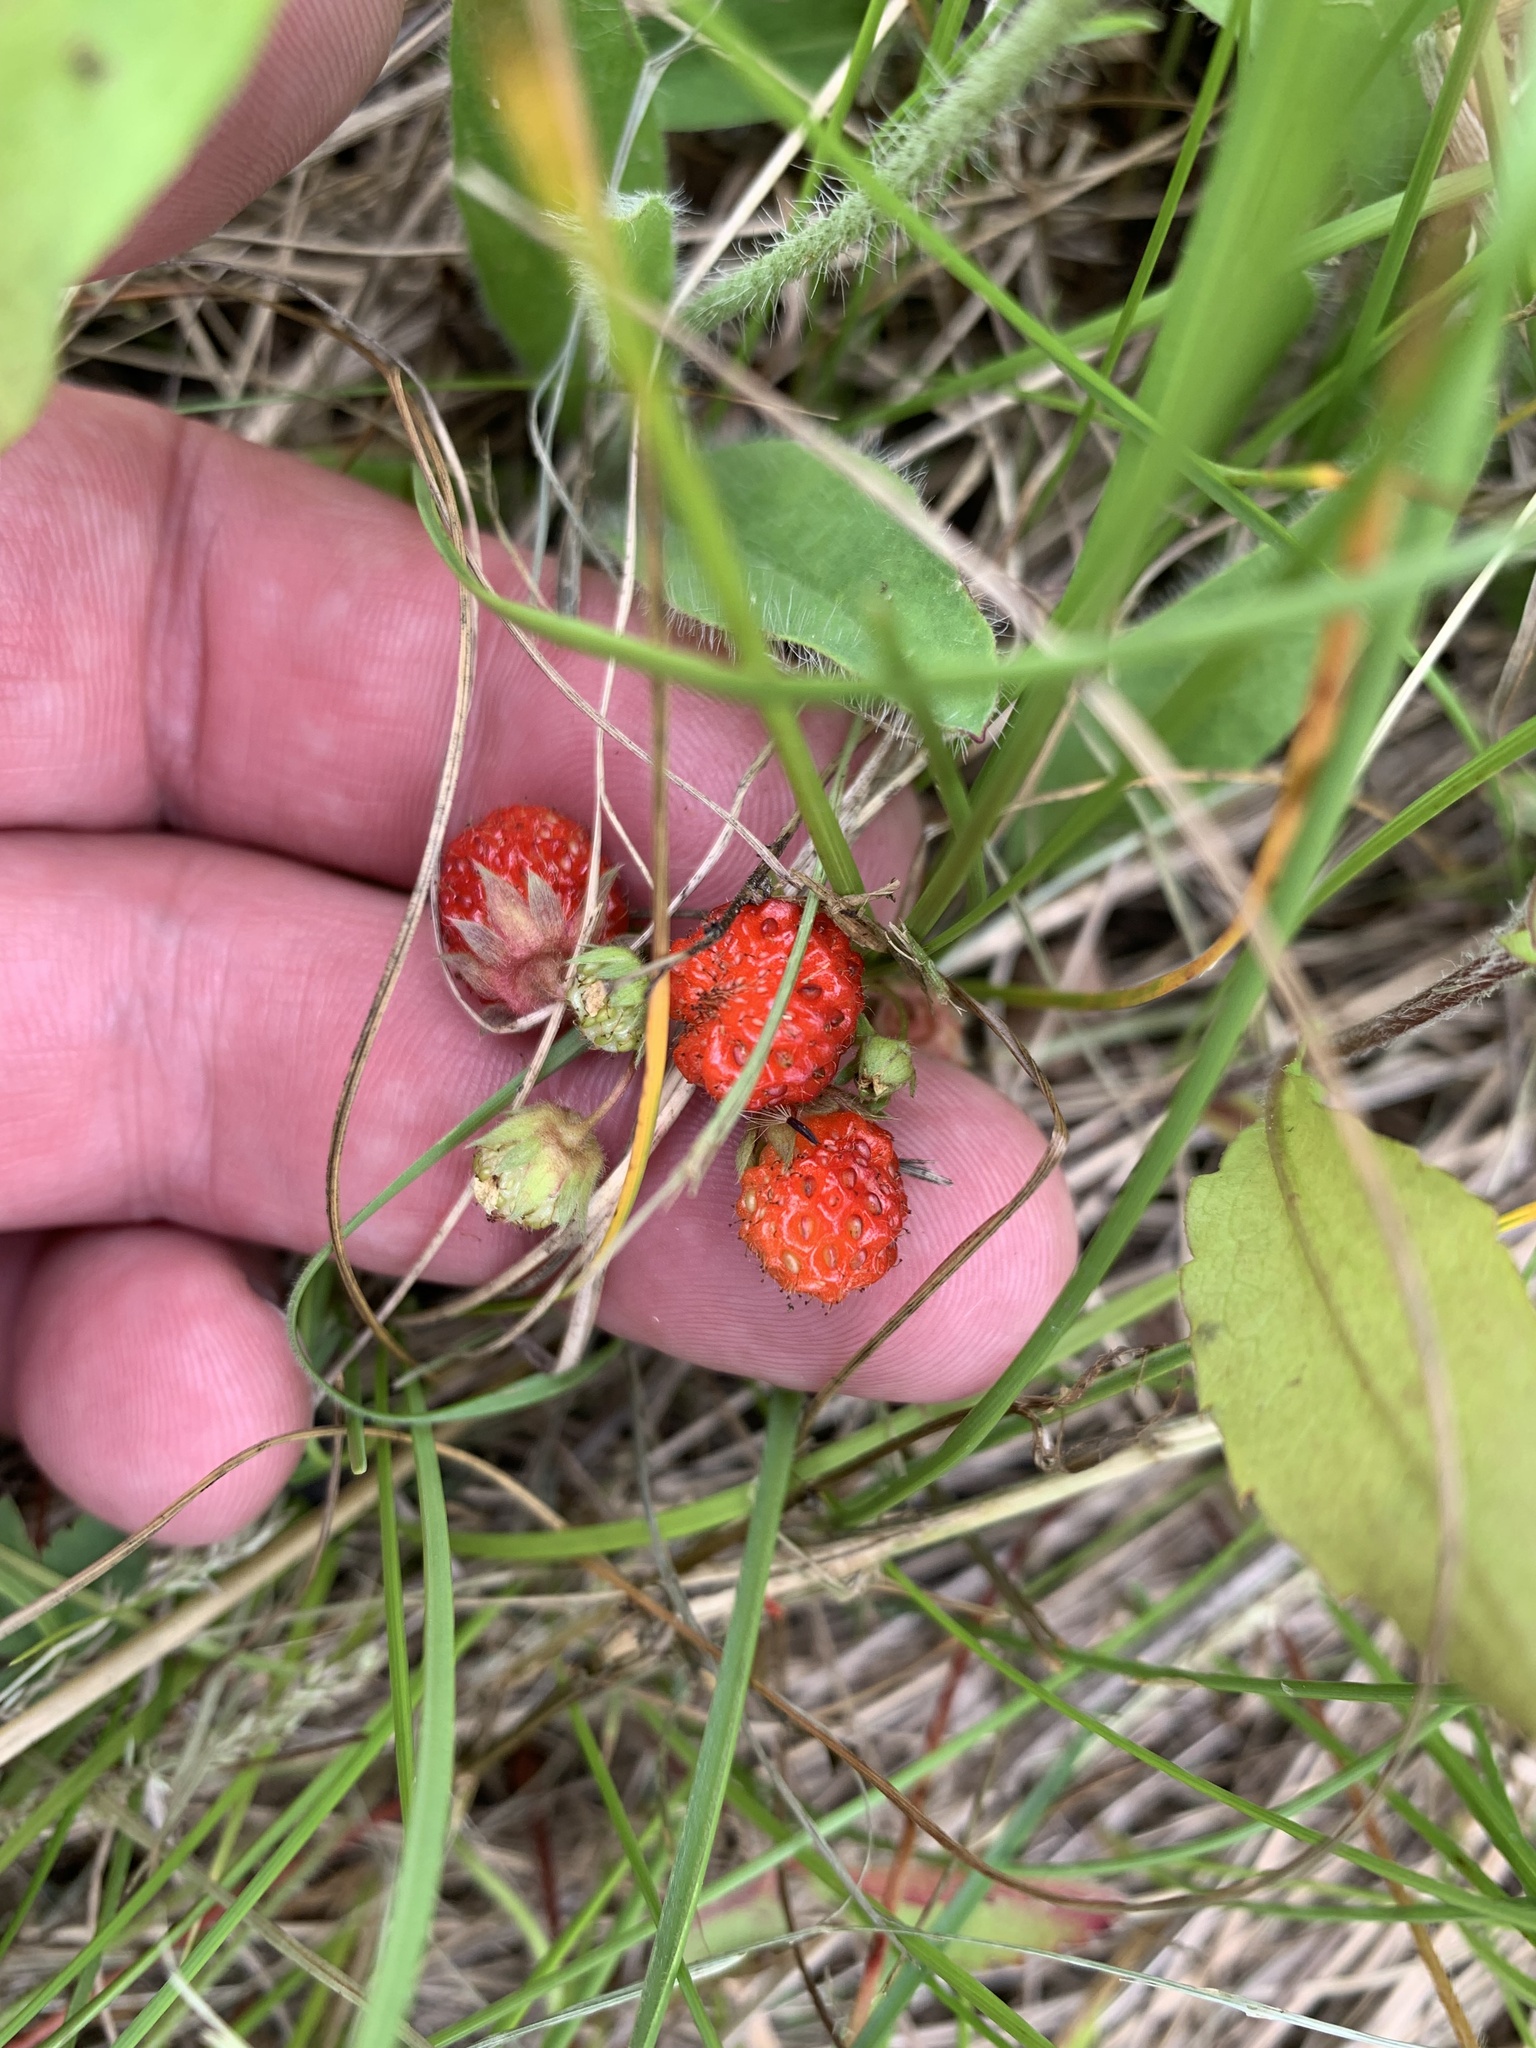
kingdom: Plantae
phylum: Tracheophyta
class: Magnoliopsida
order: Rosales
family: Rosaceae
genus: Fragaria
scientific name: Fragaria vesca
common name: Wild strawberry
